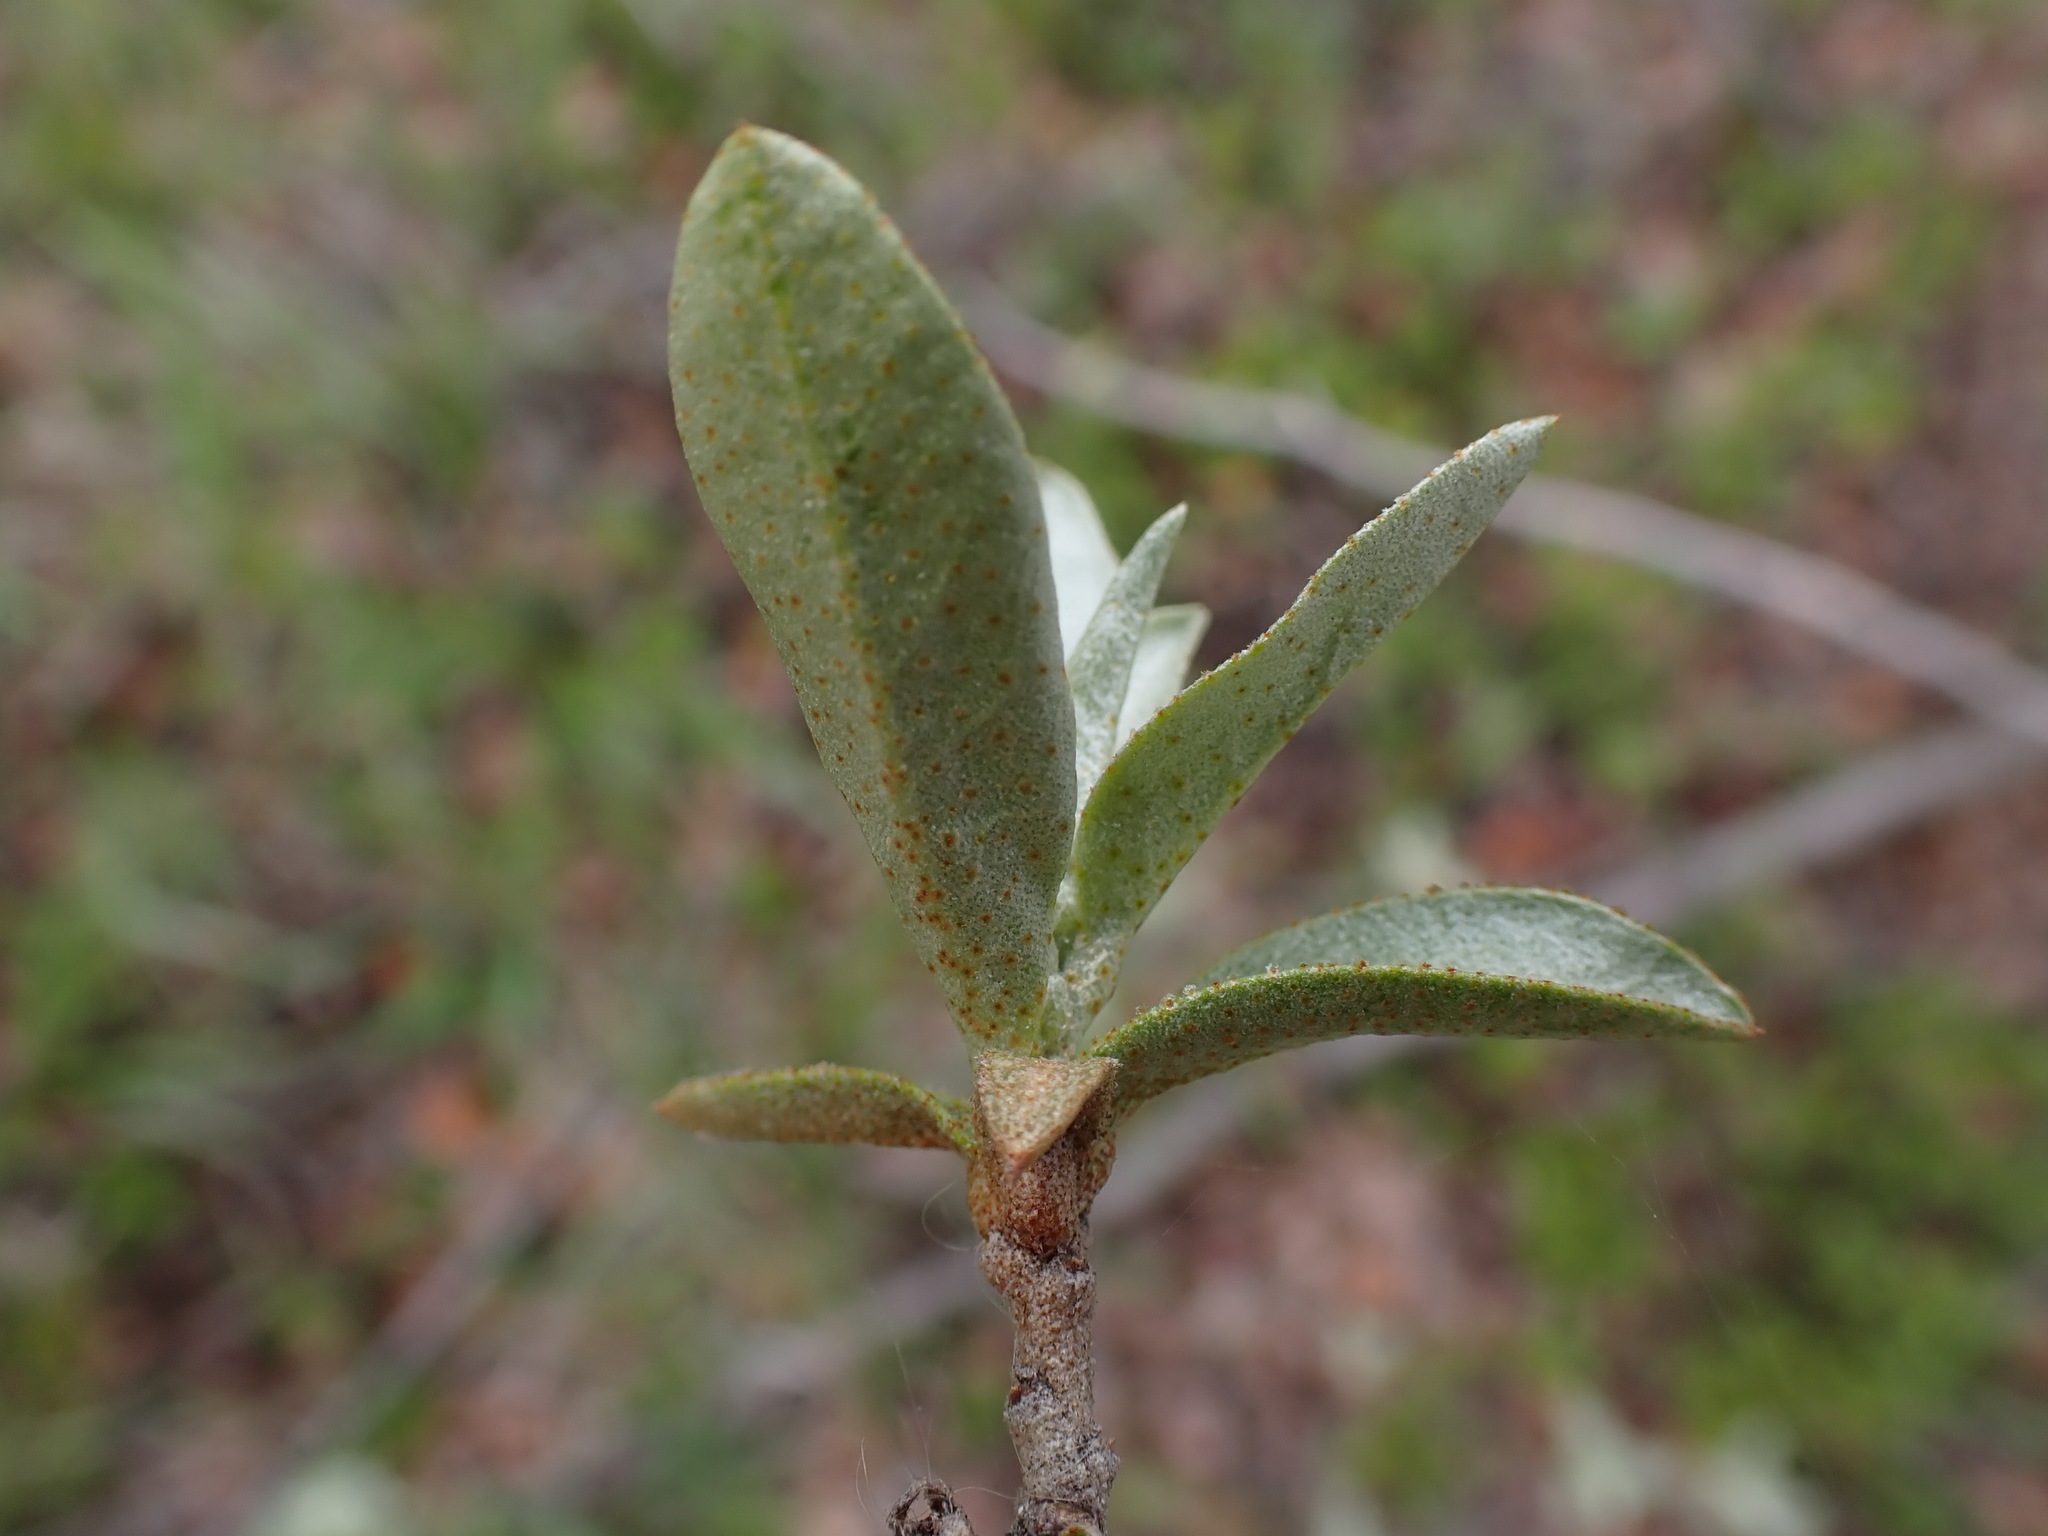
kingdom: Plantae
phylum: Tracheophyta
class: Magnoliopsida
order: Rosales
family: Elaeagnaceae
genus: Elaeagnus
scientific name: Elaeagnus commutata
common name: Silverberry
